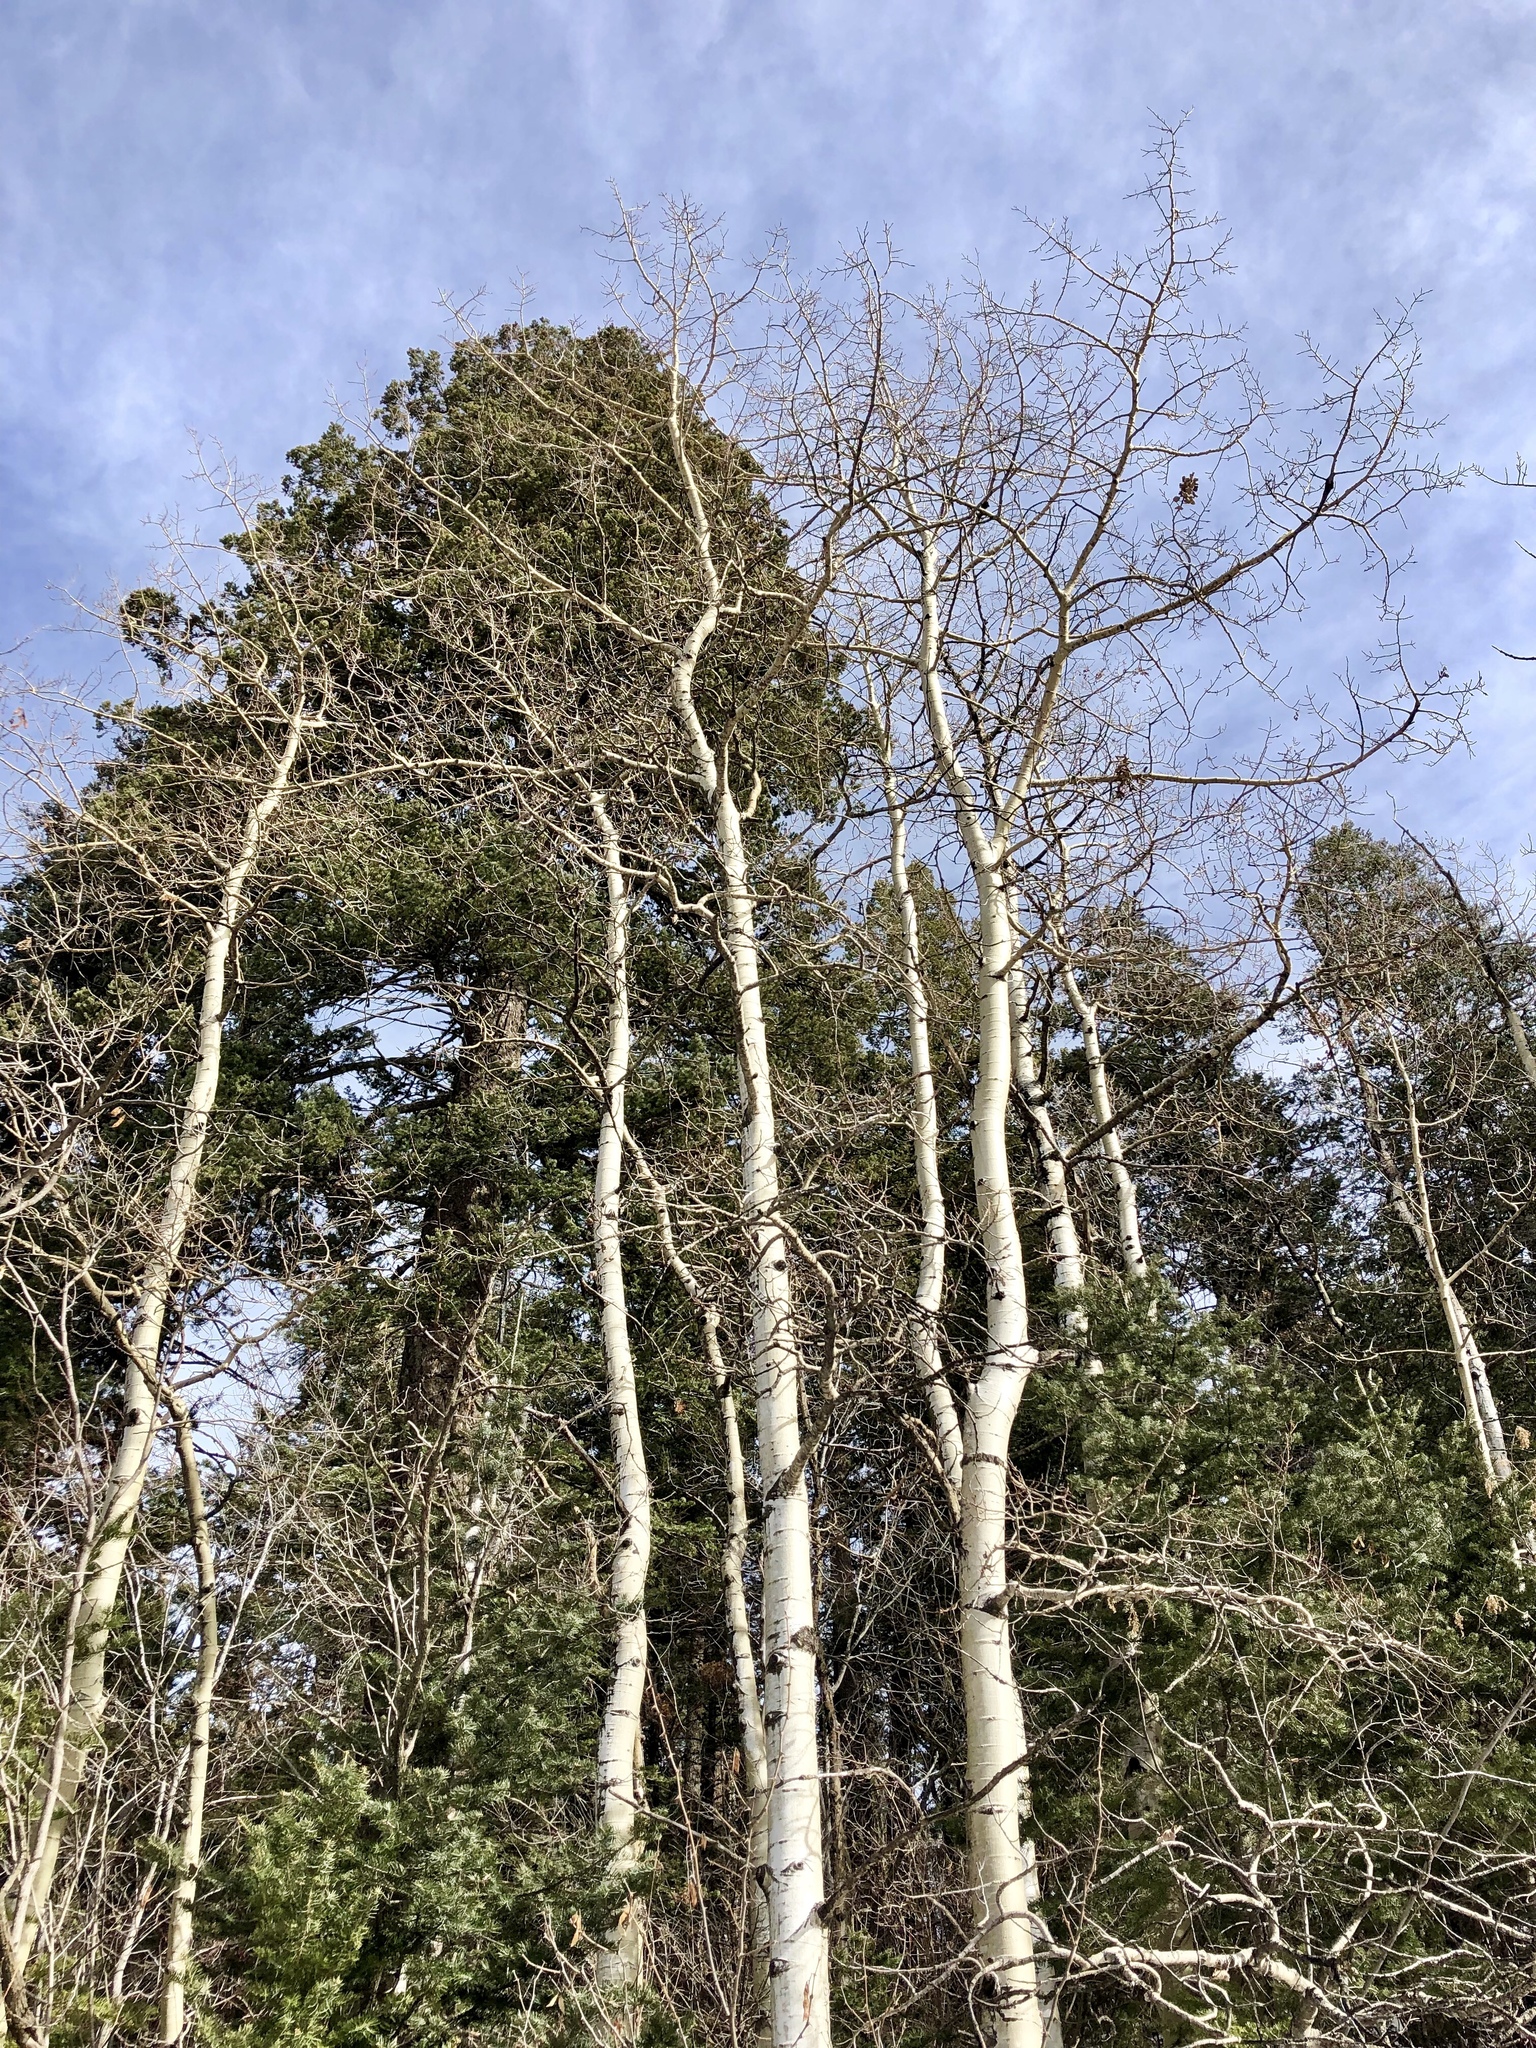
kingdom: Plantae
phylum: Tracheophyta
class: Magnoliopsida
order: Malpighiales
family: Salicaceae
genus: Populus
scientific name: Populus tremuloides
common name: Quaking aspen
